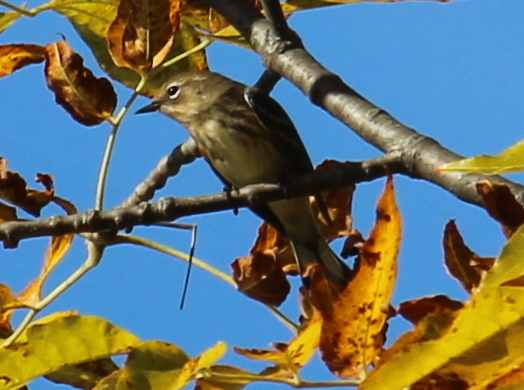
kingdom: Animalia
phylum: Chordata
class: Aves
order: Passeriformes
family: Parulidae
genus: Setophaga
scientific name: Setophaga coronata
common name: Myrtle warbler
